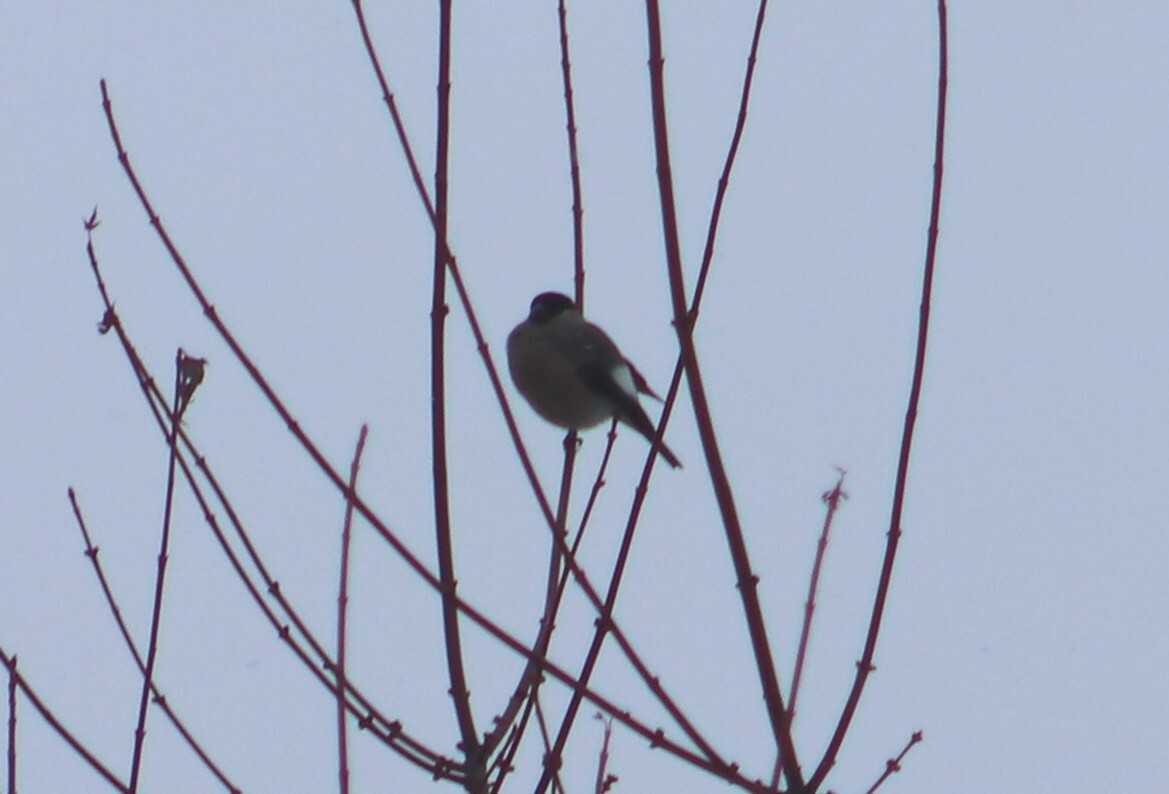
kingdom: Animalia
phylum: Chordata
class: Aves
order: Passeriformes
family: Fringillidae
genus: Pyrrhula
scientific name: Pyrrhula pyrrhula
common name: Eurasian bullfinch
